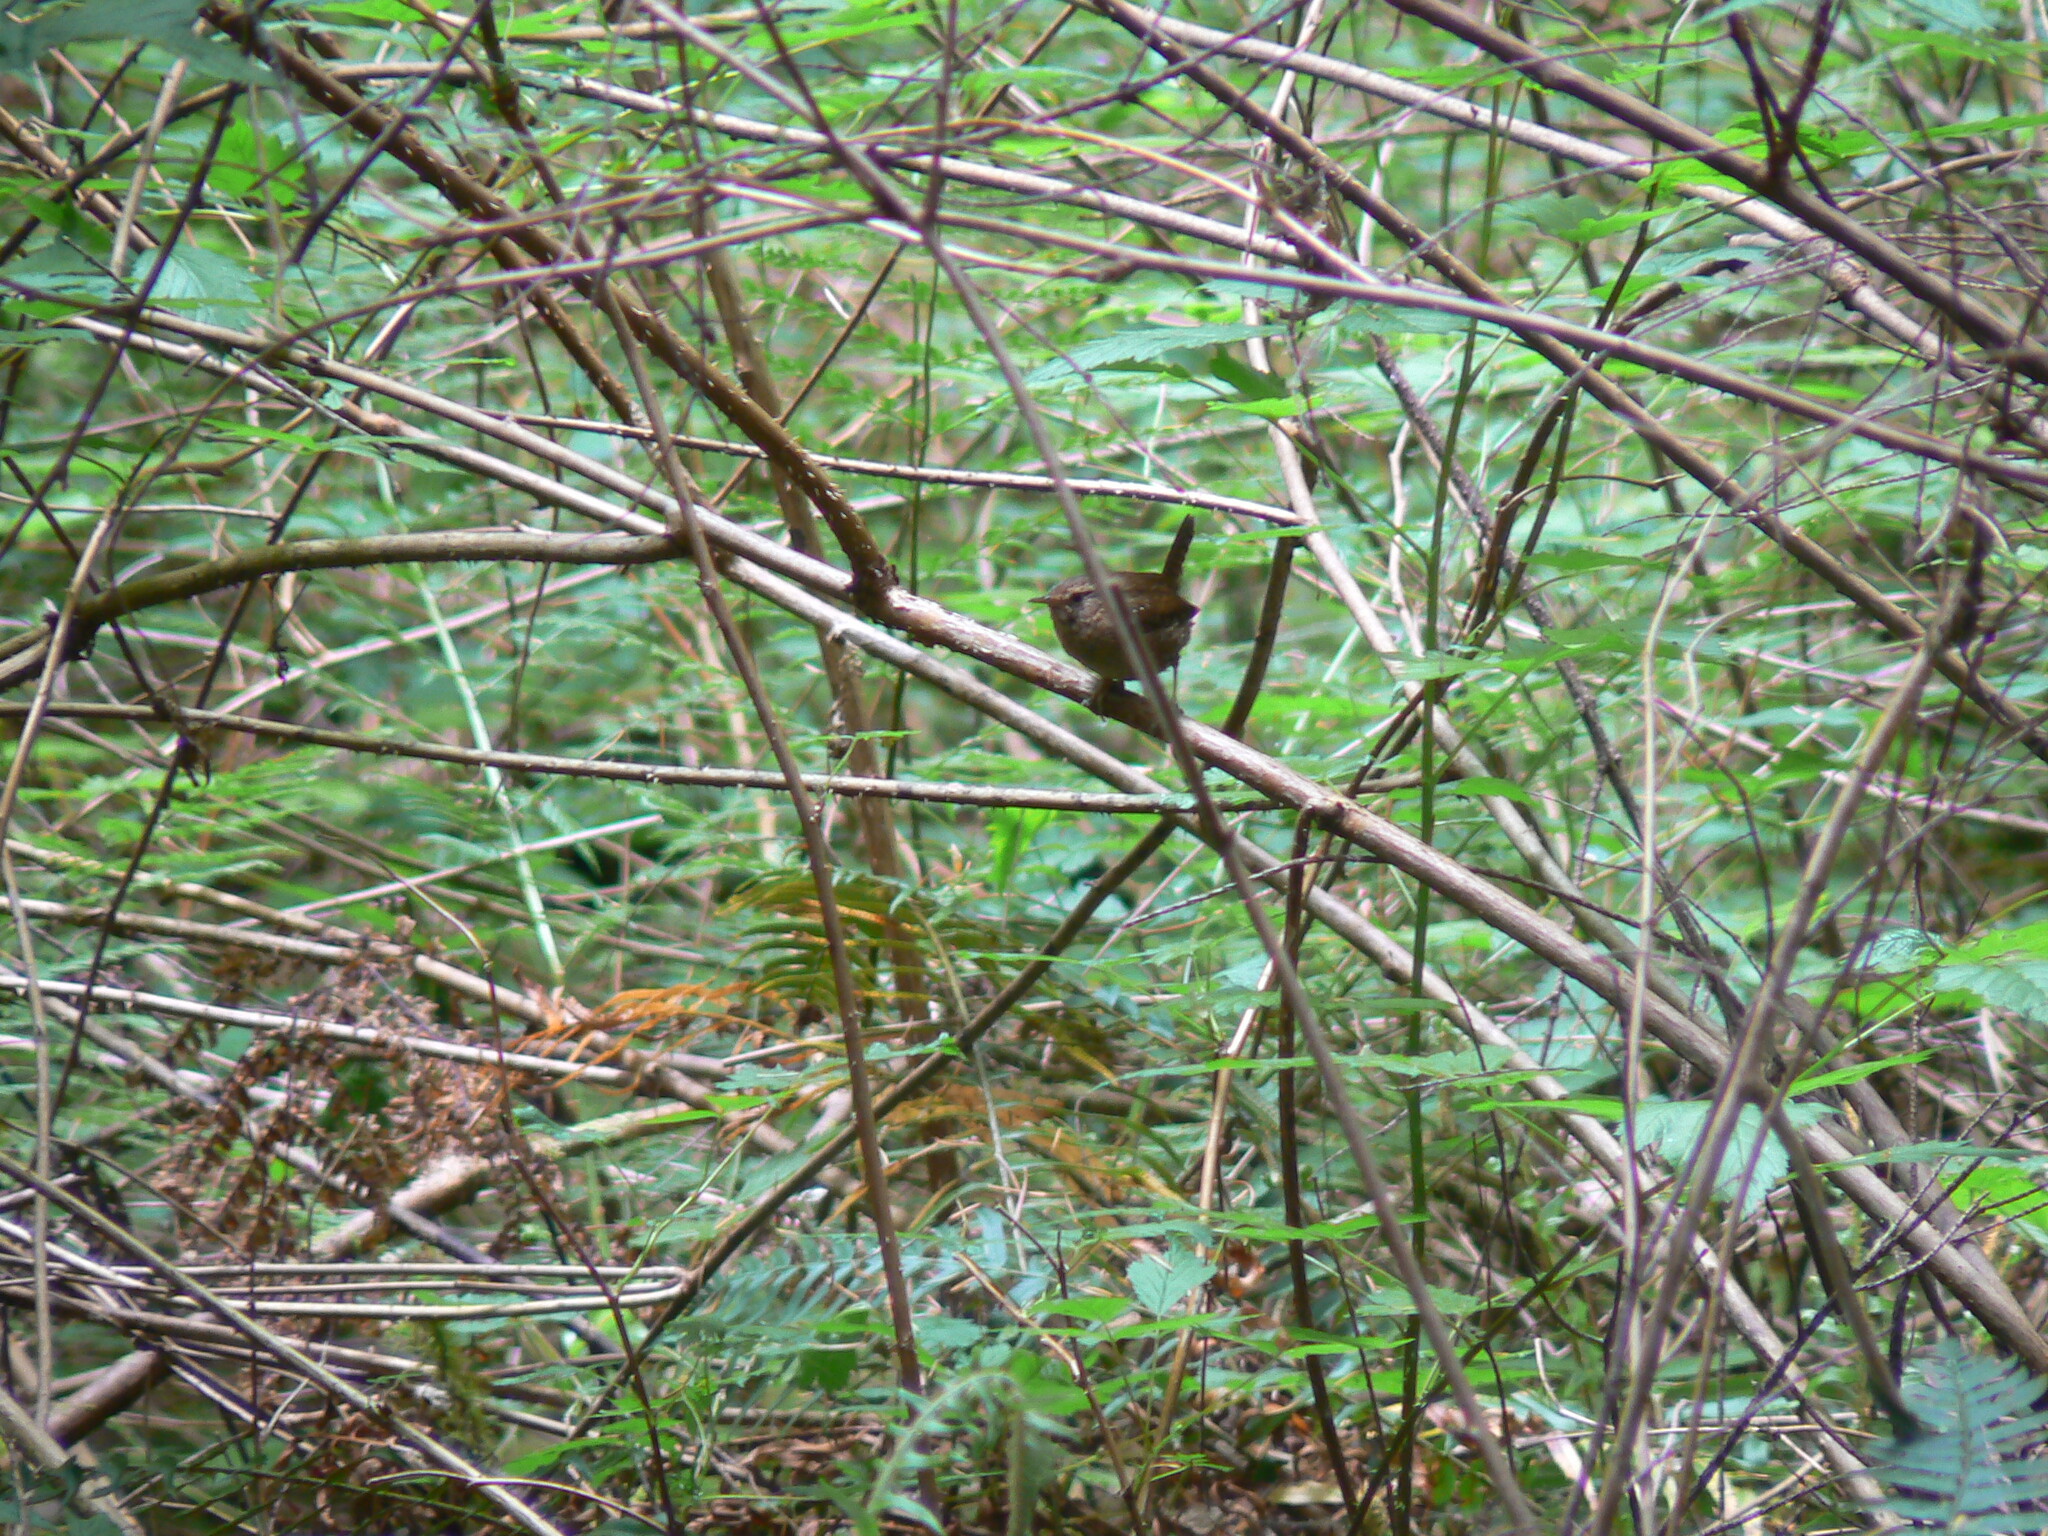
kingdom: Animalia
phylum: Chordata
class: Aves
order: Passeriformes
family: Troglodytidae
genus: Troglodytes
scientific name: Troglodytes pacificus
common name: Pacific wren
